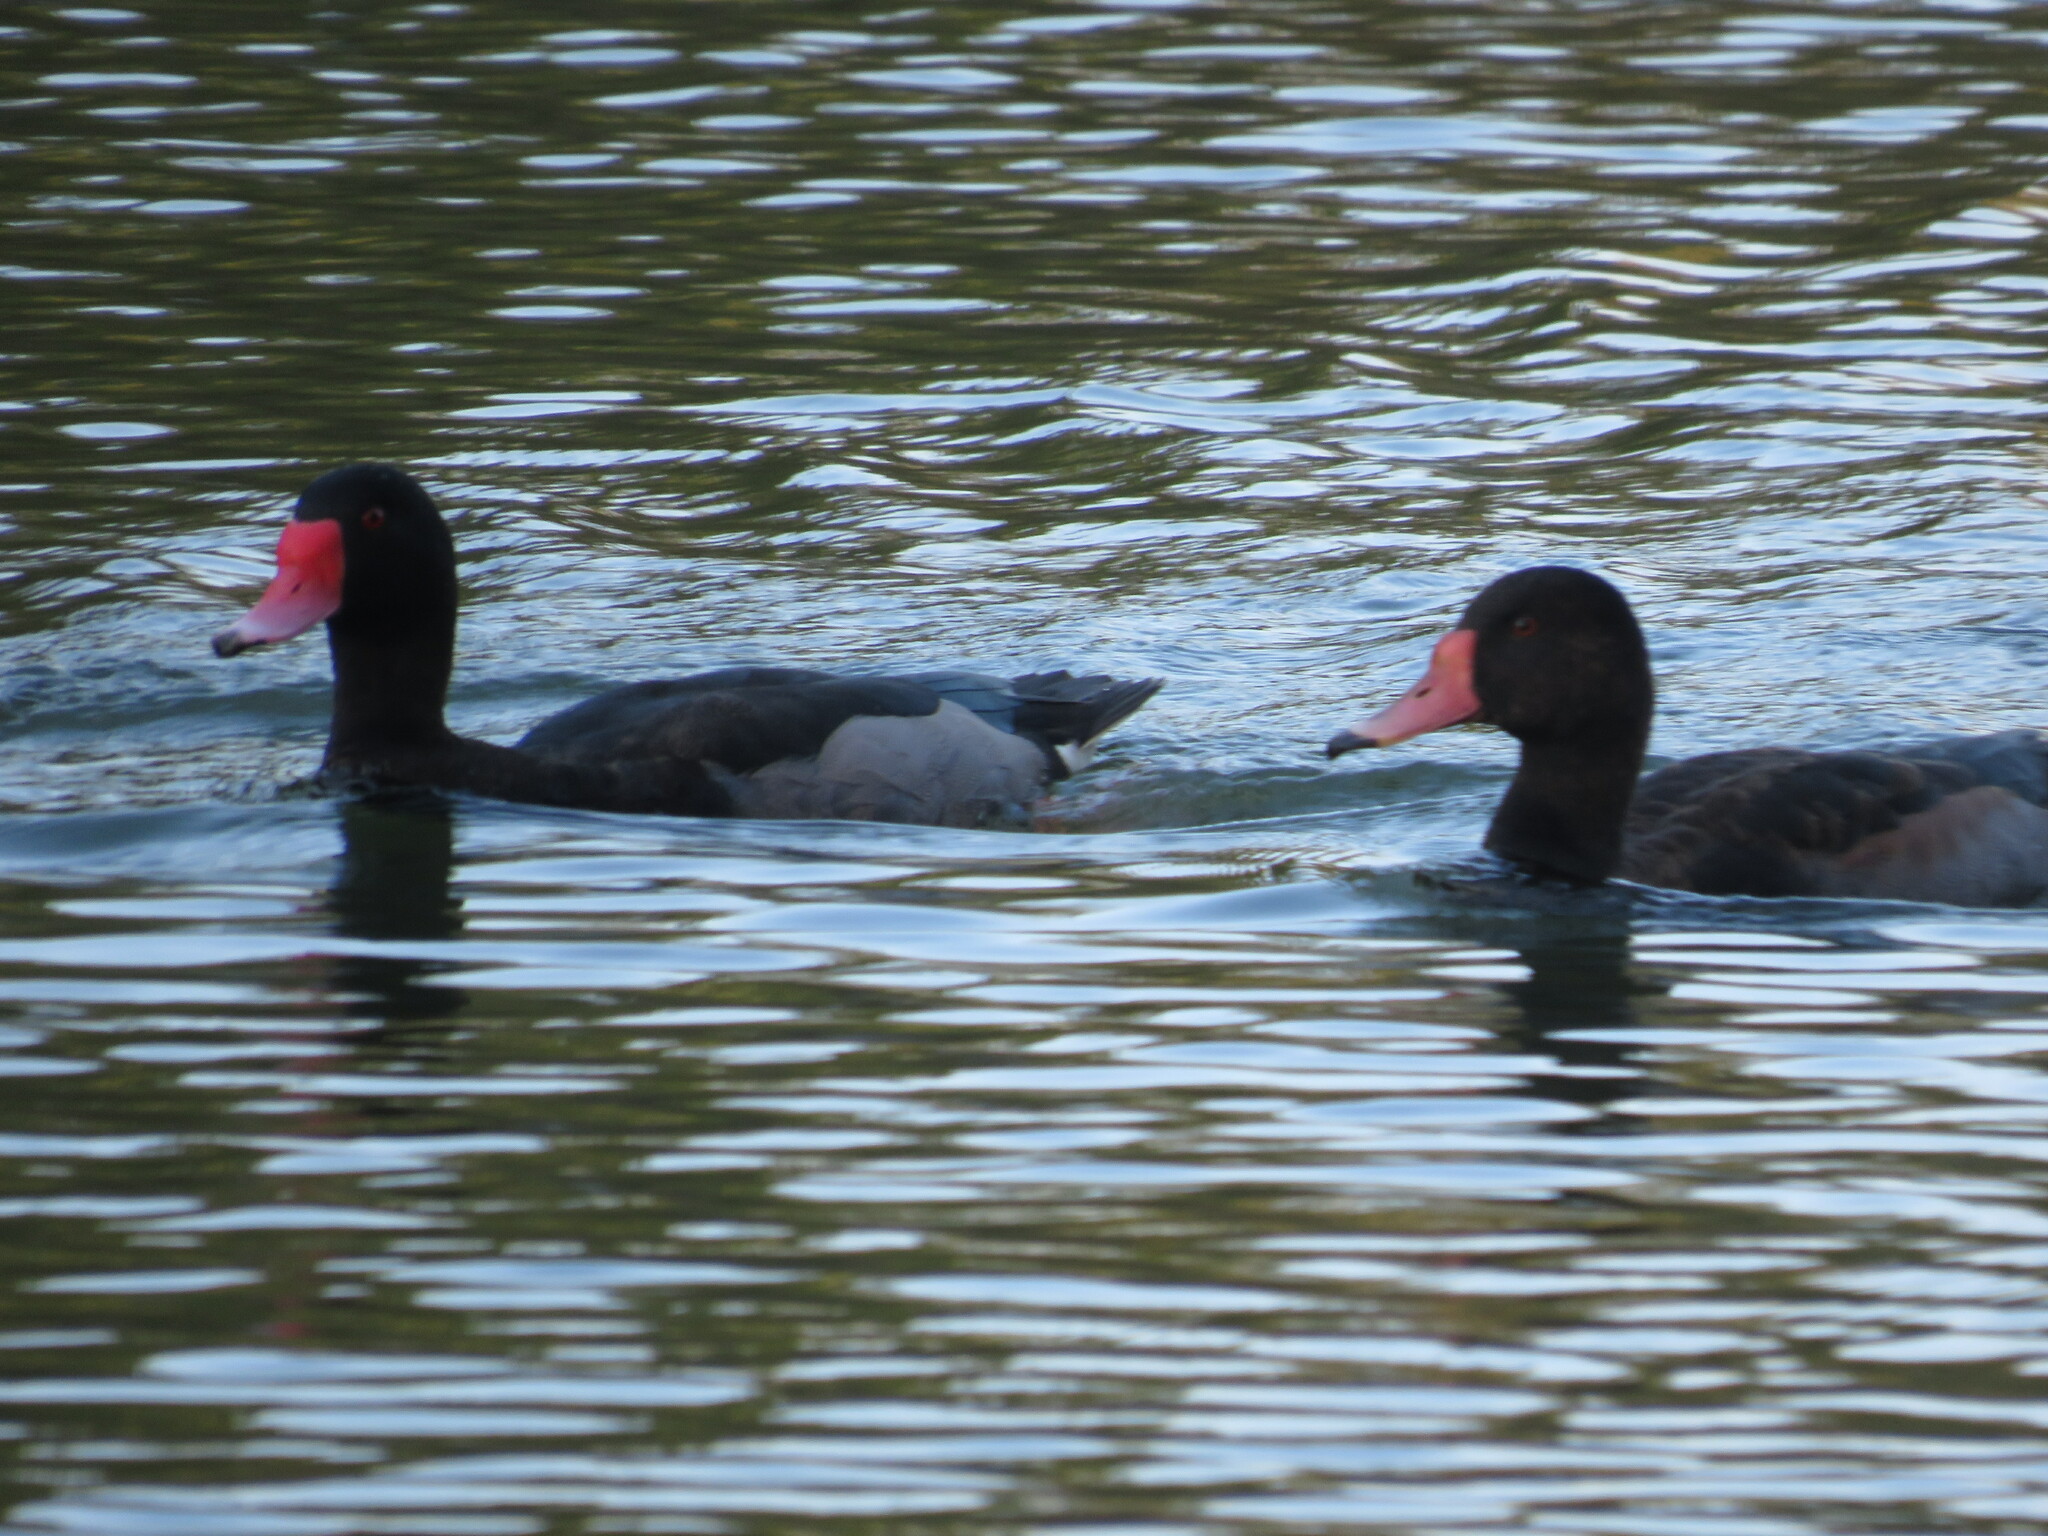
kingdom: Animalia
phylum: Chordata
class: Aves
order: Anseriformes
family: Anatidae
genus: Netta
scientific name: Netta peposaca
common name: Rosy-billed pochard
